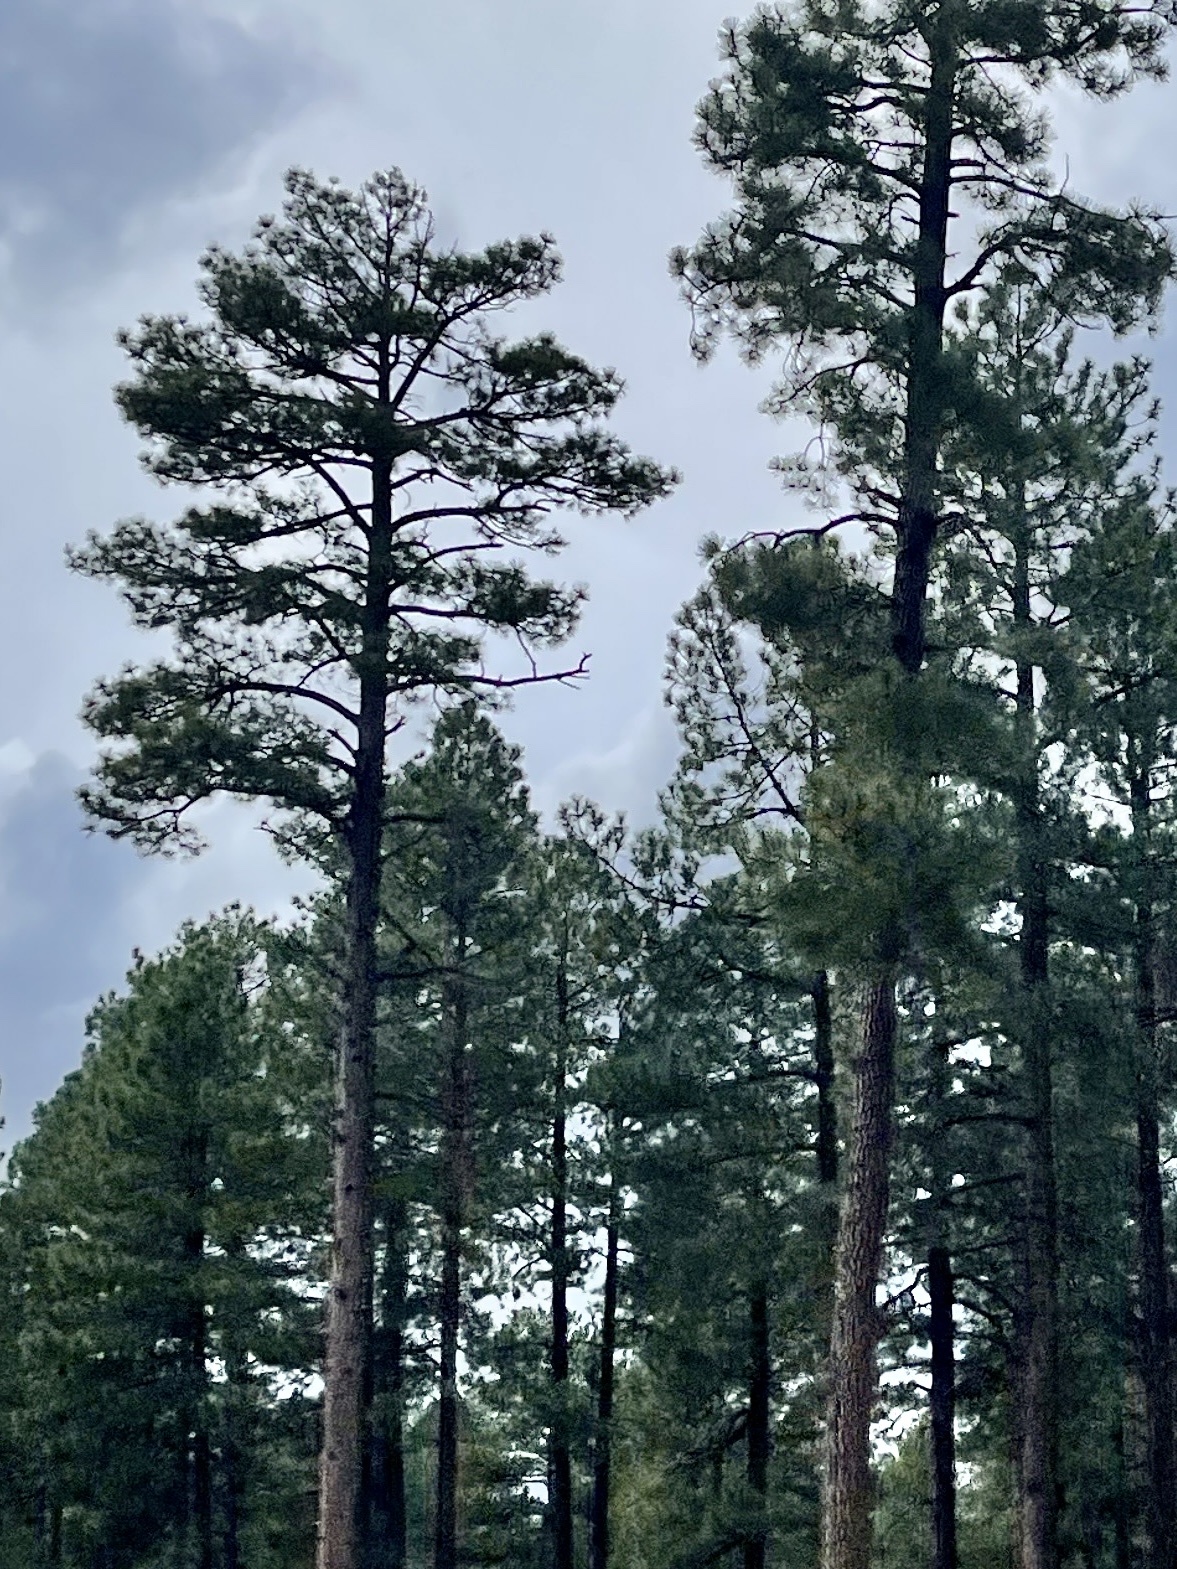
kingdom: Plantae
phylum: Tracheophyta
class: Pinopsida
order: Pinales
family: Pinaceae
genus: Pinus
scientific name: Pinus ponderosa
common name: Western yellow-pine
